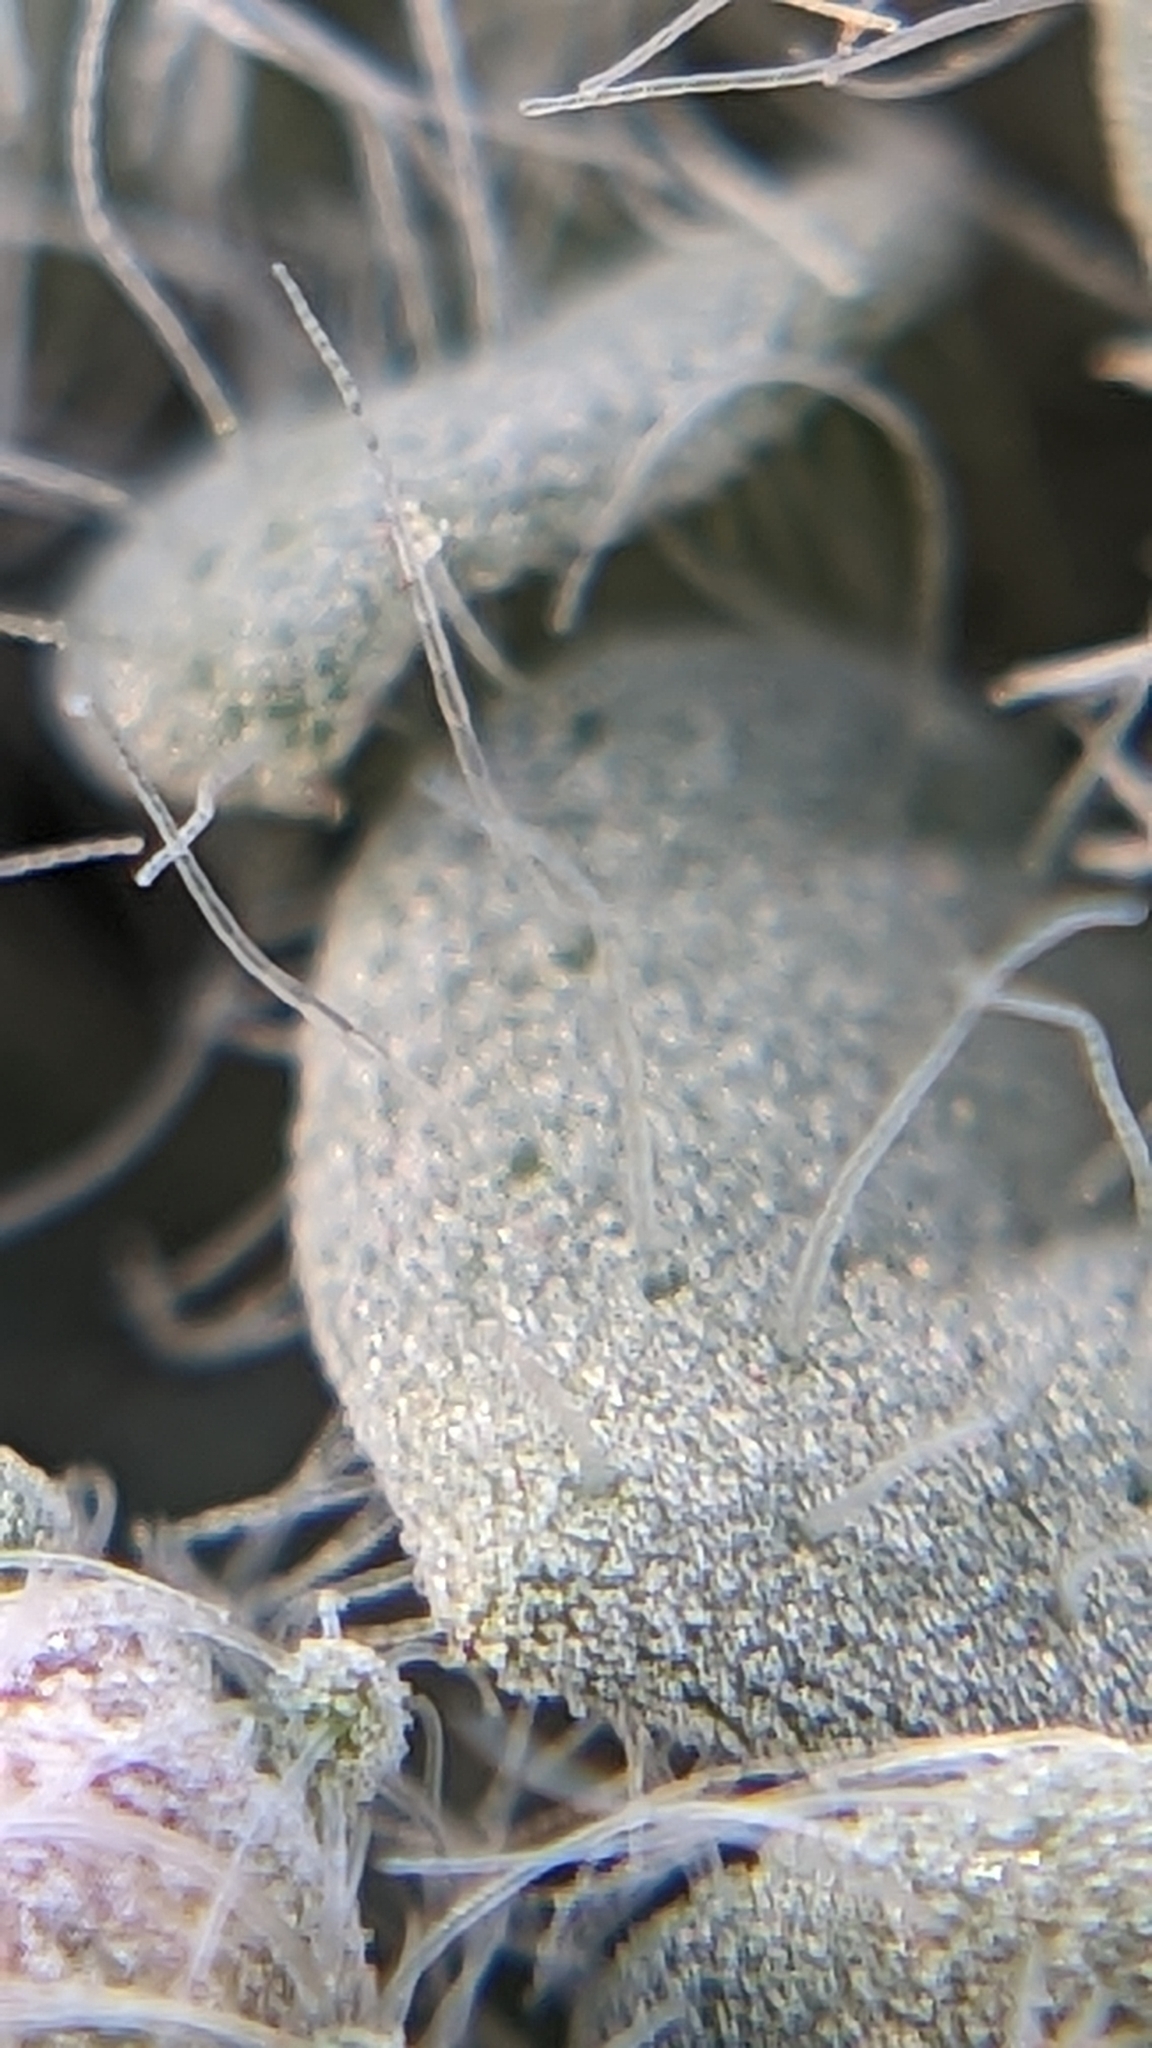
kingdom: Plantae
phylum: Tracheophyta
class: Magnoliopsida
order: Asterales
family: Asteraceae
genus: Psathyrotes
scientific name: Psathyrotes pilifera
